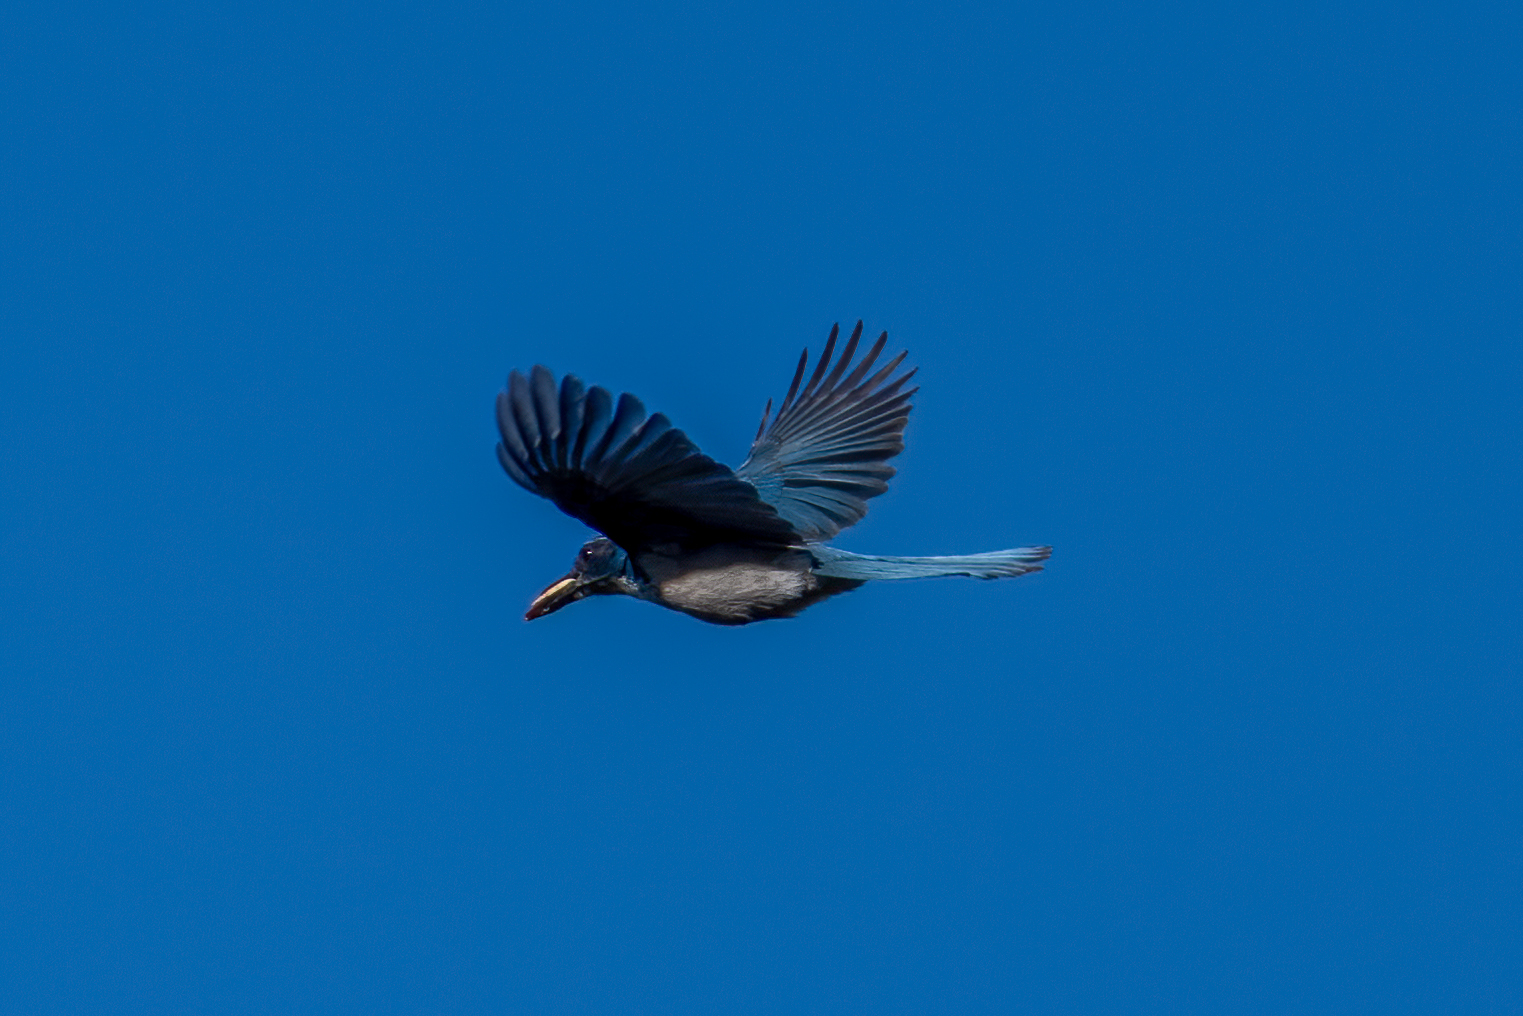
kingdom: Animalia
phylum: Chordata
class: Aves
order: Passeriformes
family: Corvidae
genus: Aphelocoma
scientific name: Aphelocoma californica
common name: California scrub-jay
